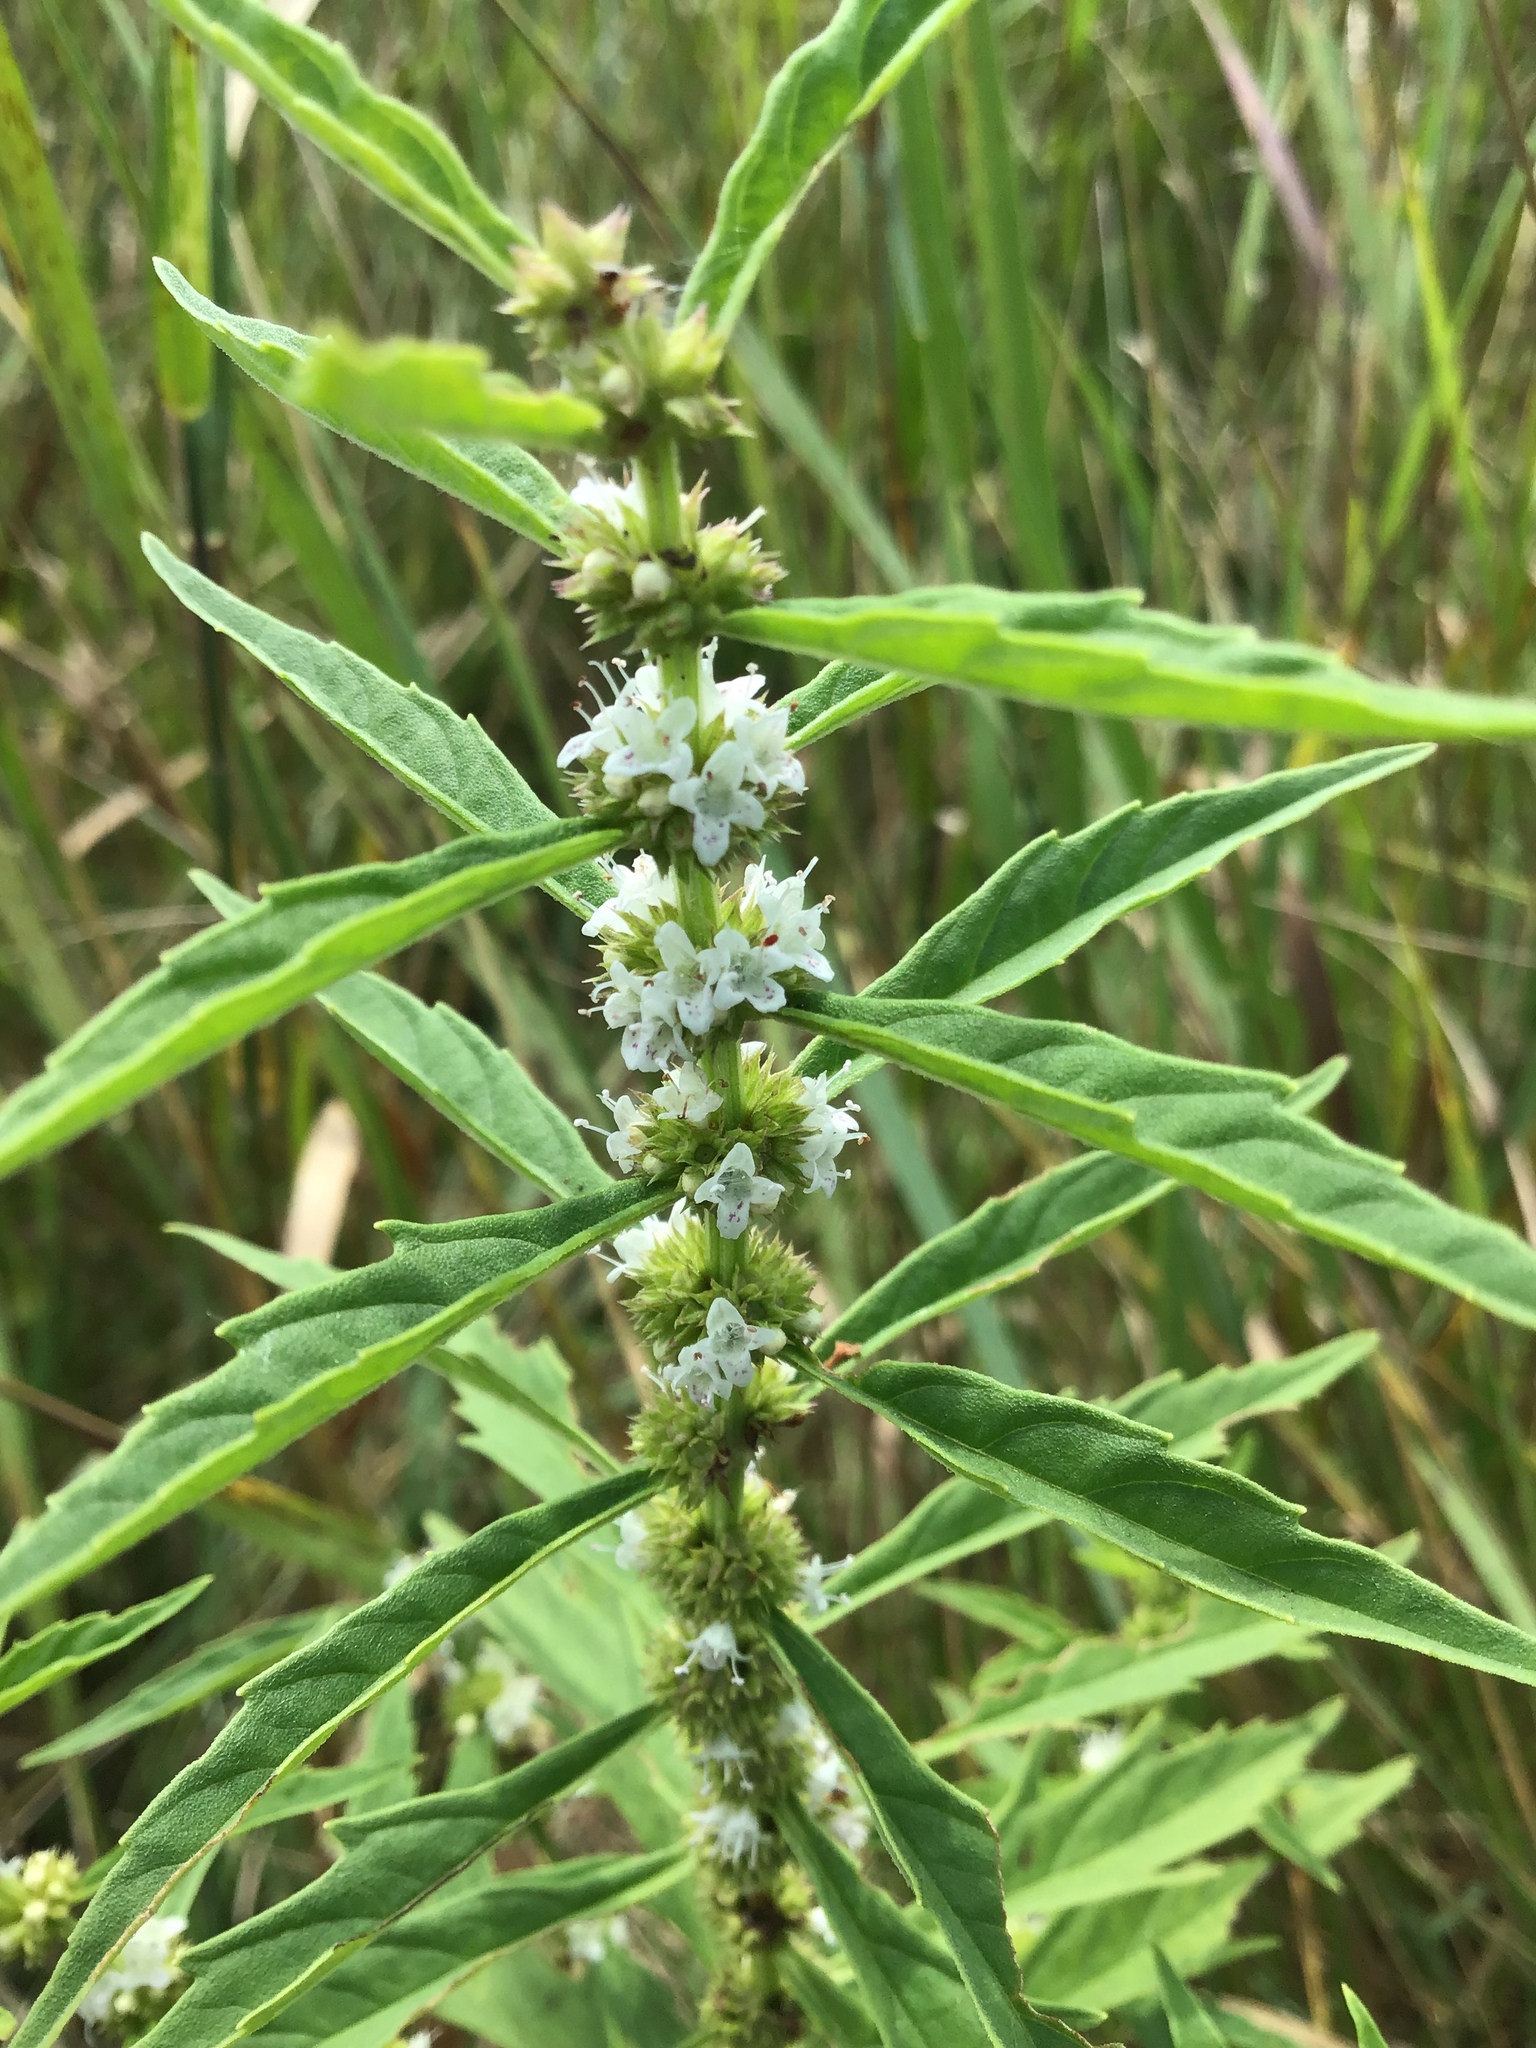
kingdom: Plantae
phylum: Tracheophyta
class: Magnoliopsida
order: Lamiales
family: Lamiaceae
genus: Lycopus
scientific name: Lycopus americanus
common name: American bugleweed
